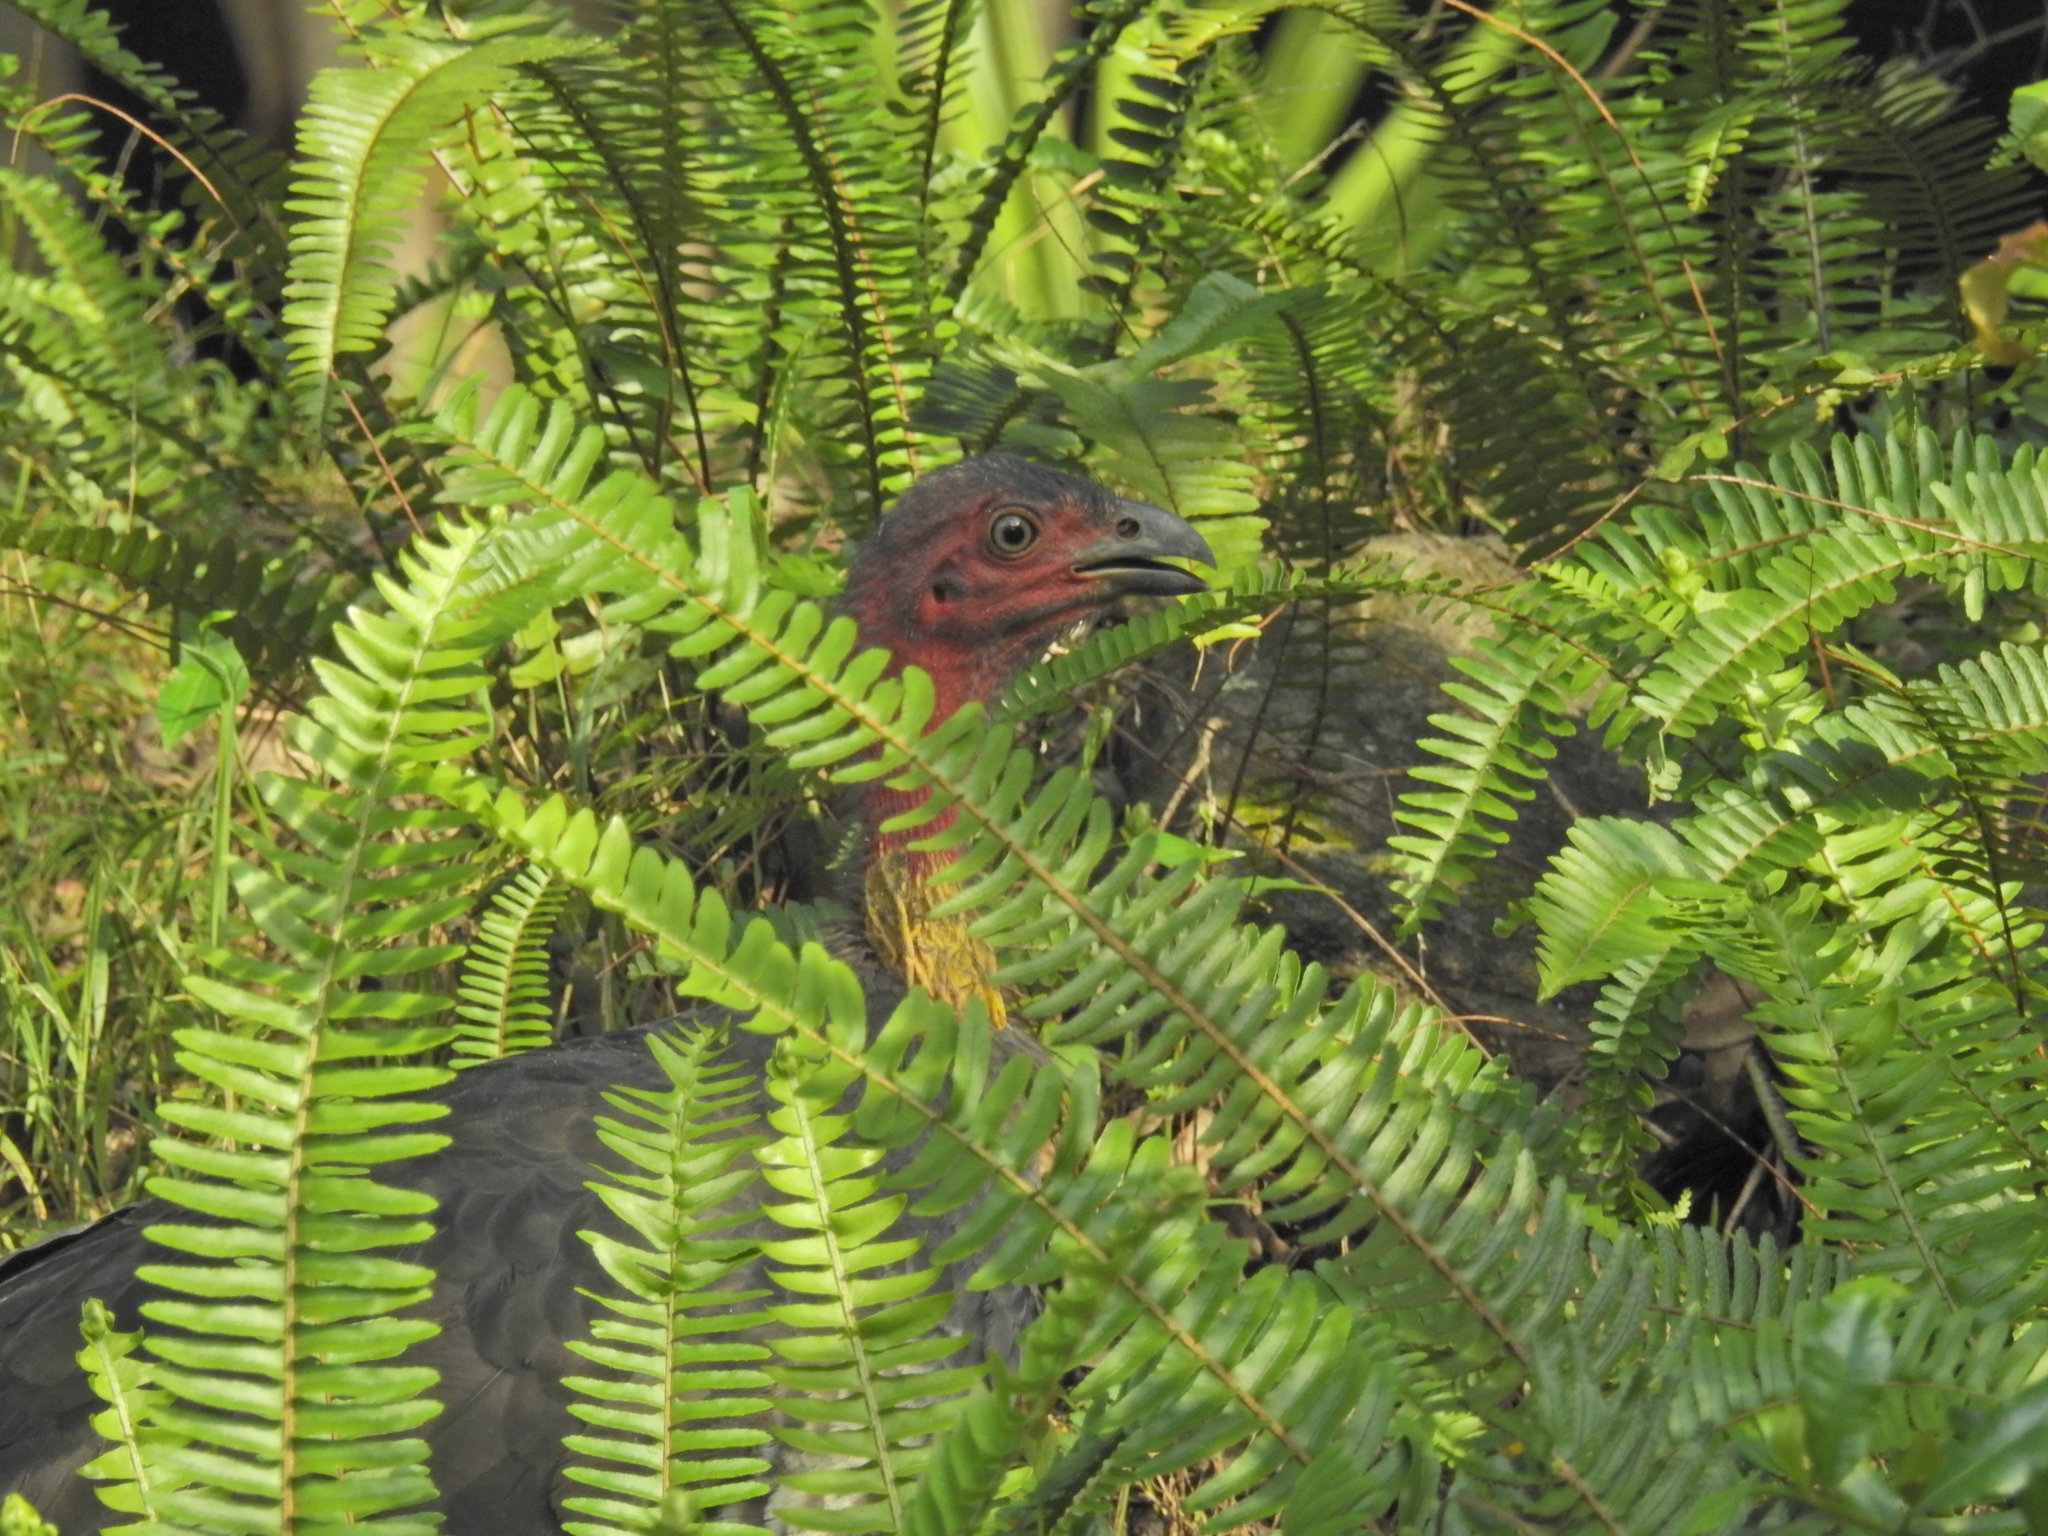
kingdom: Animalia
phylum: Chordata
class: Aves
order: Galliformes
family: Megapodiidae
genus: Alectura
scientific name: Alectura lathami
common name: Australian brushturkey
